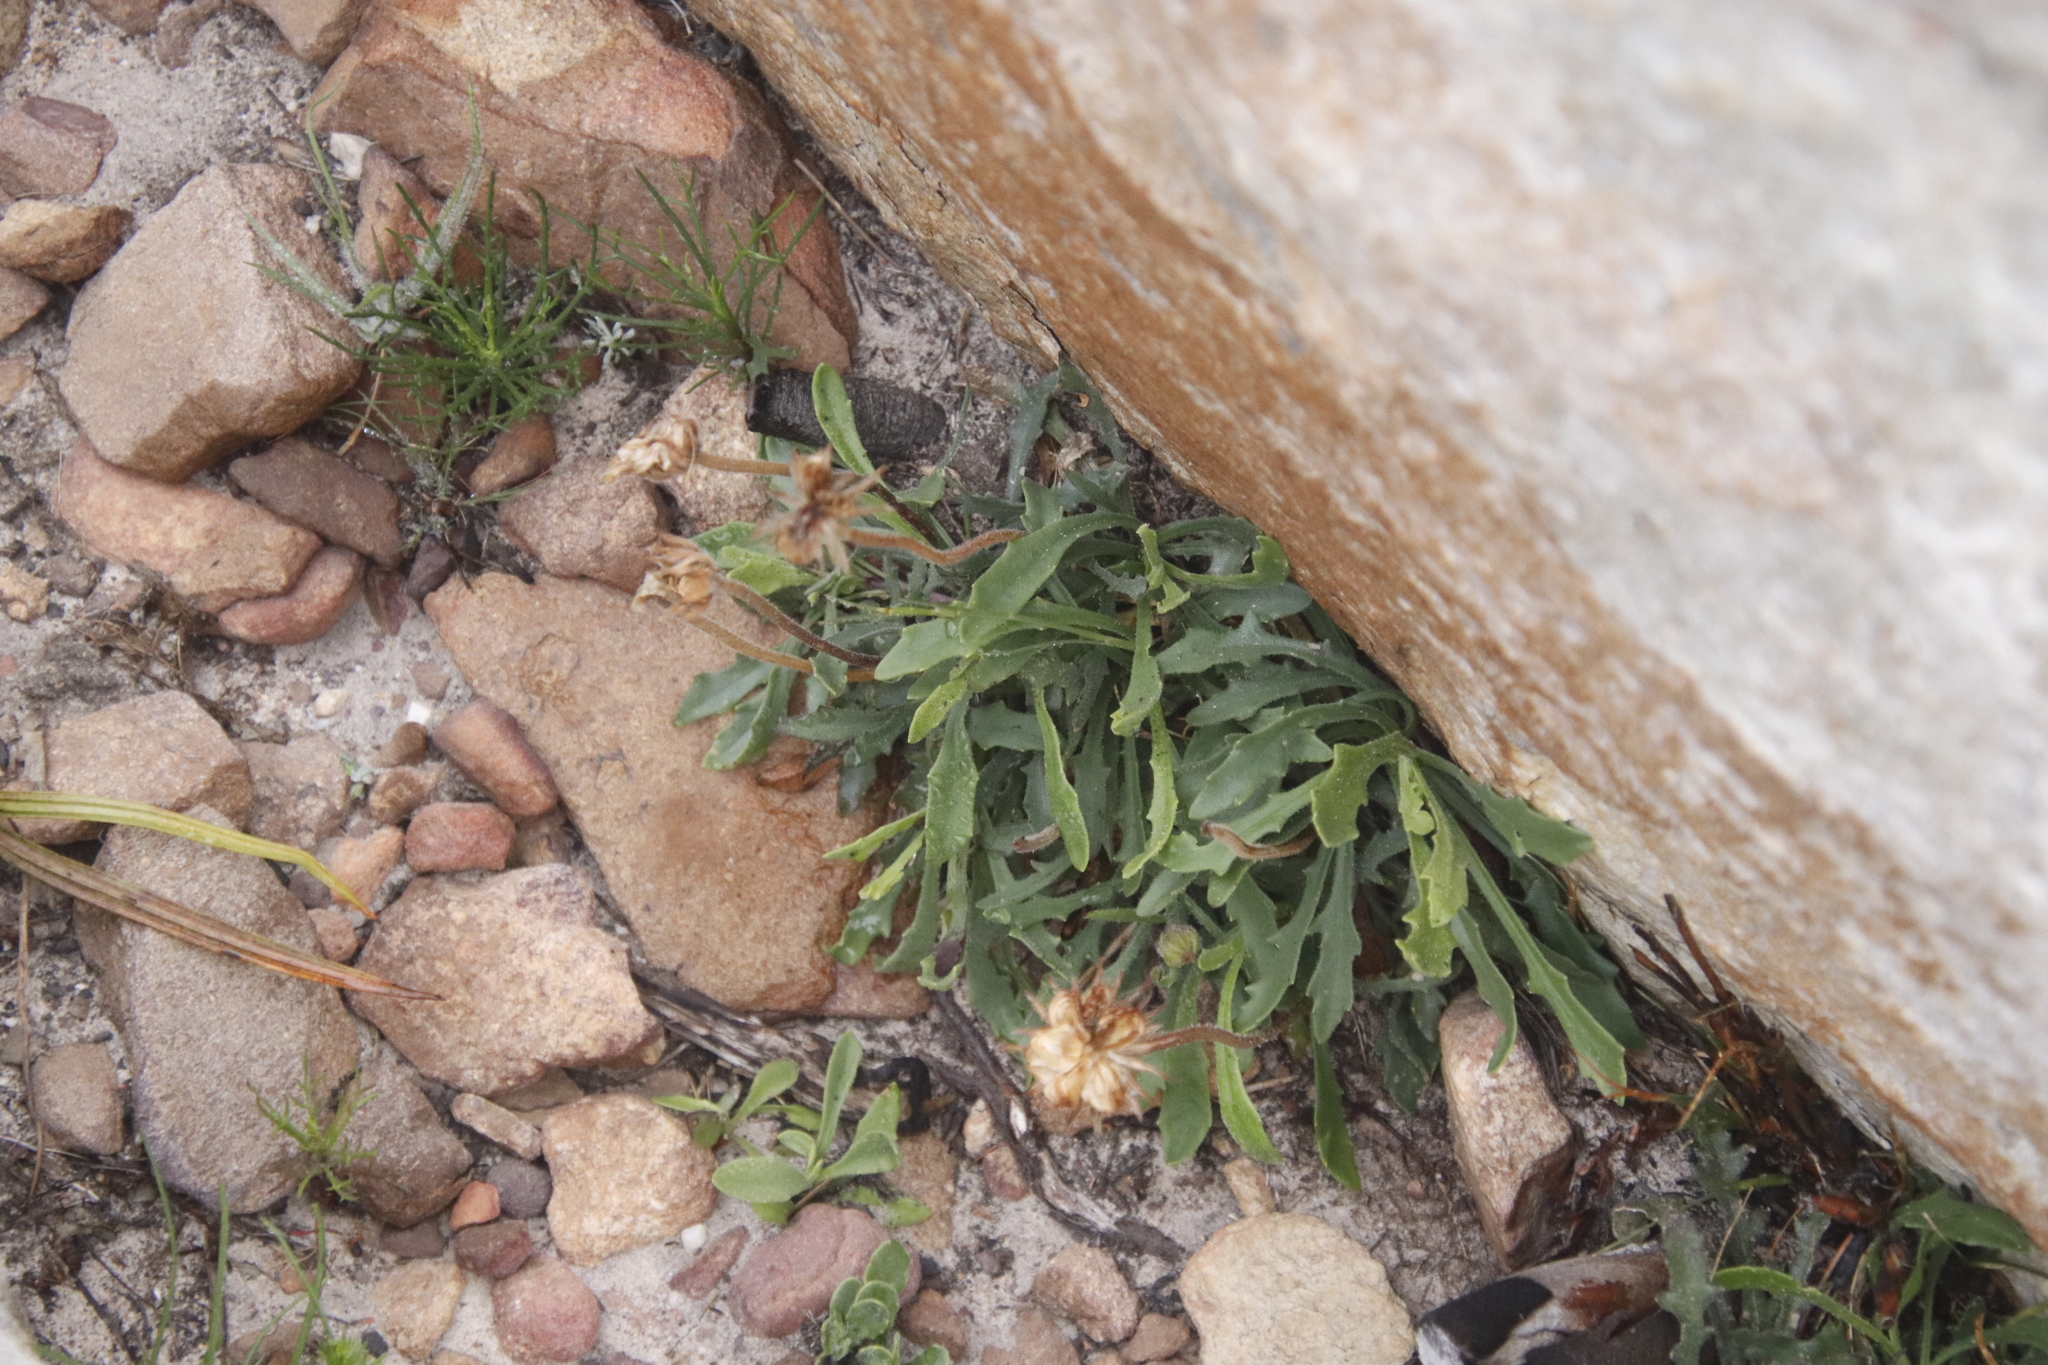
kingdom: Plantae
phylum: Tracheophyta
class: Magnoliopsida
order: Asterales
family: Asteraceae
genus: Dimorphotheca
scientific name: Dimorphotheca montana
